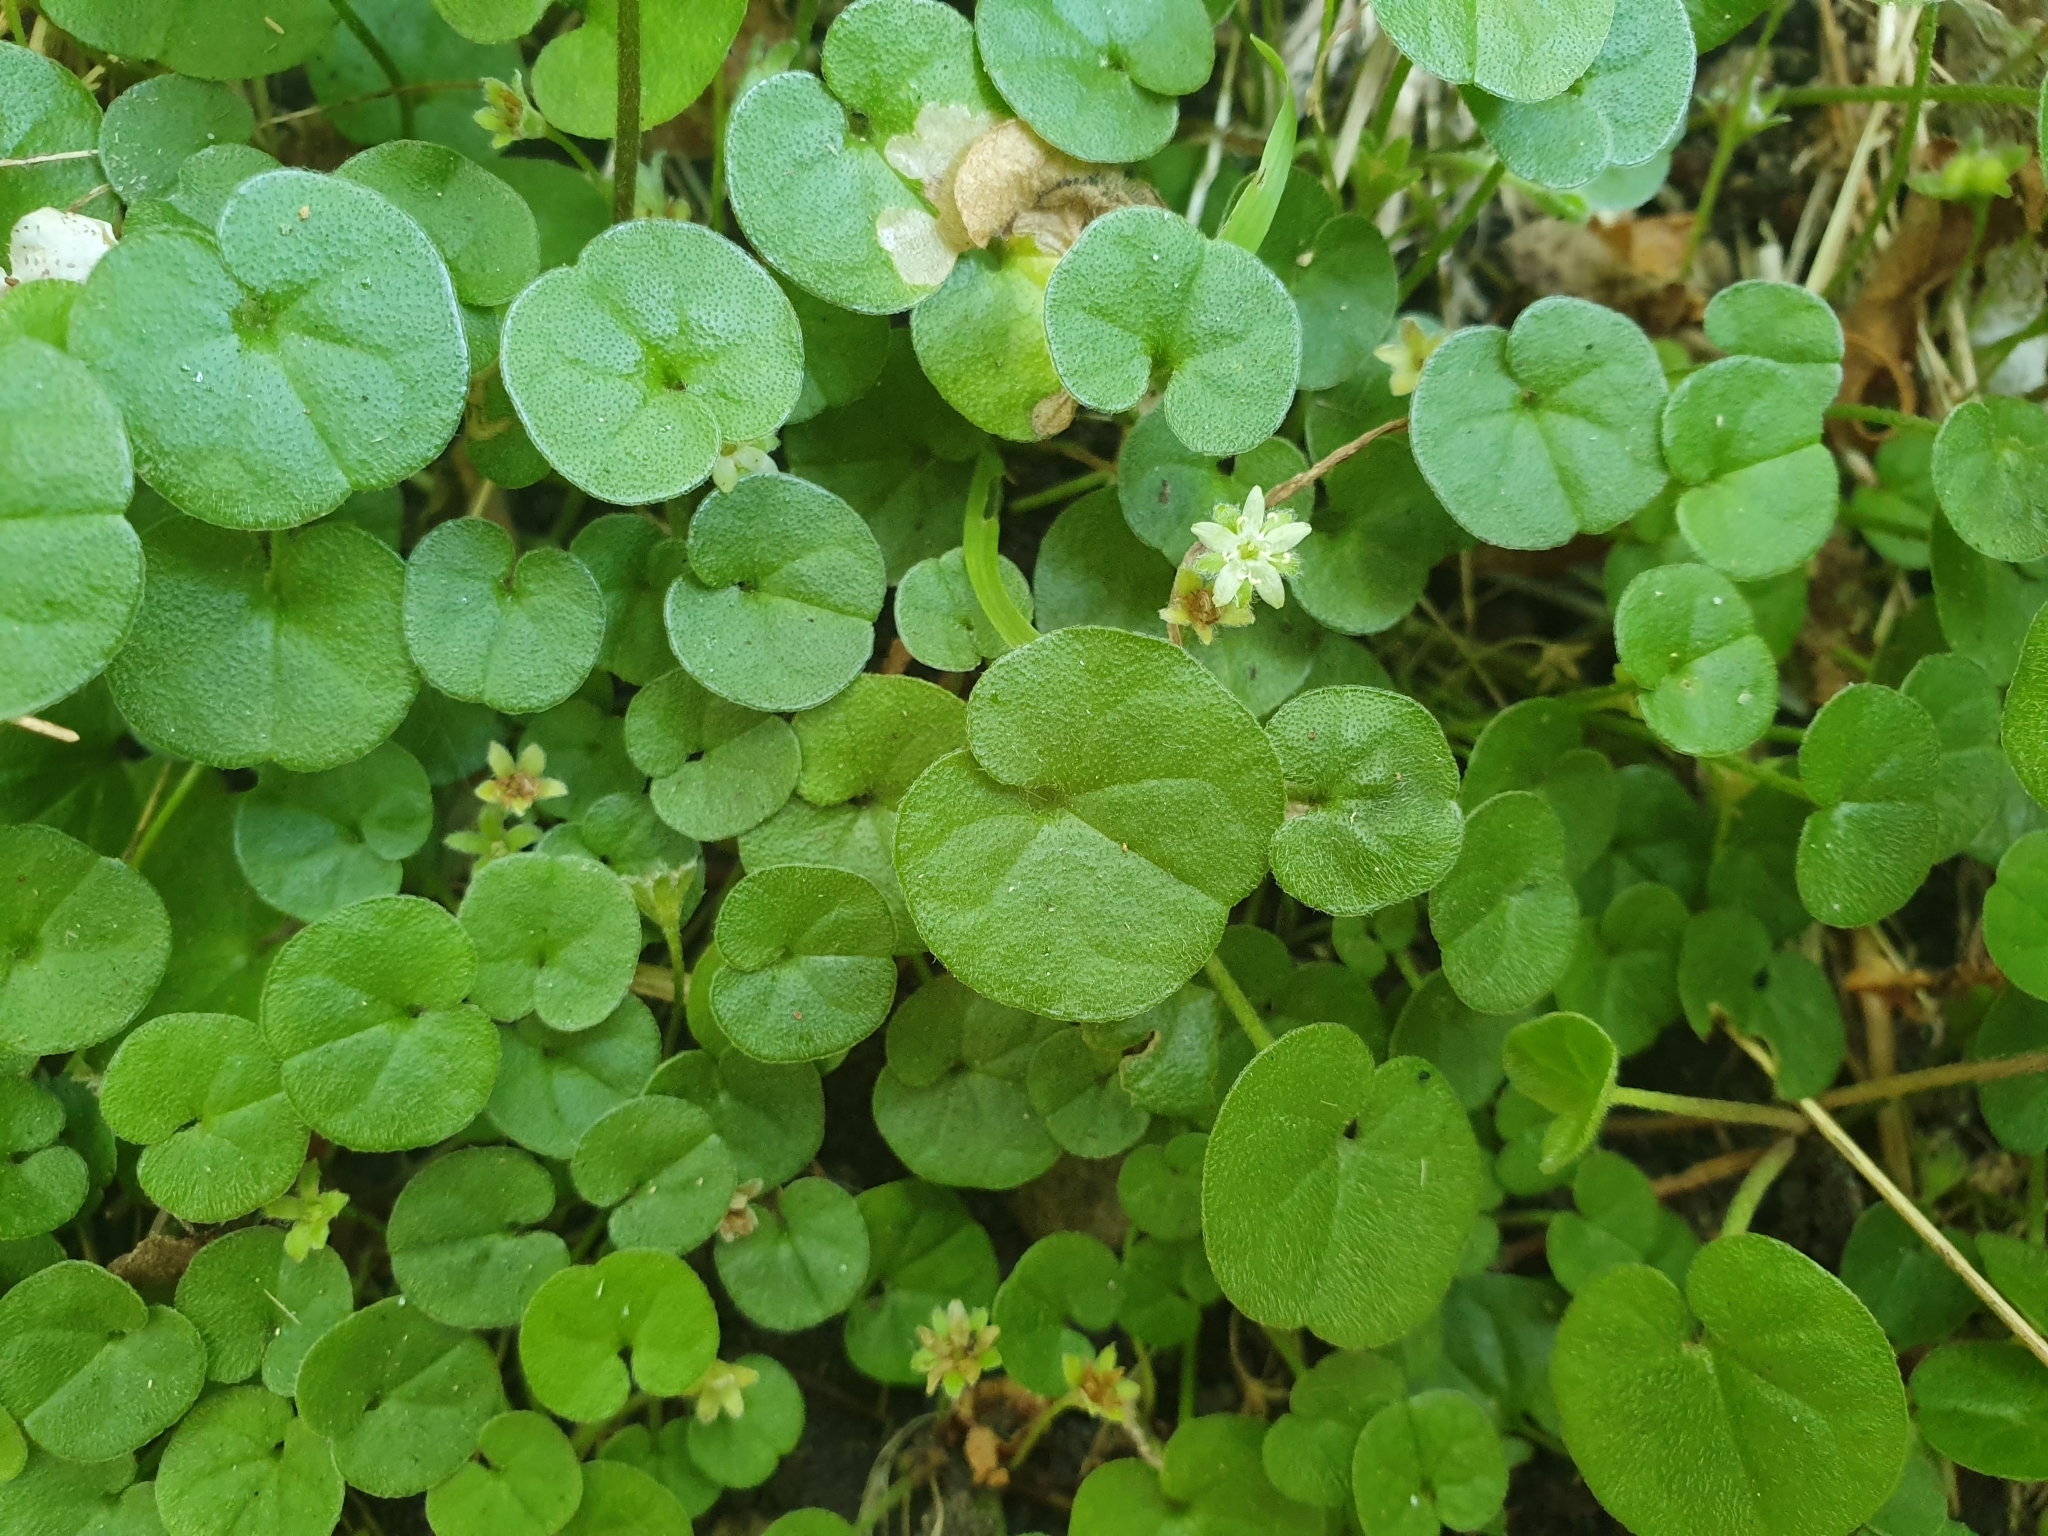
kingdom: Plantae
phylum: Tracheophyta
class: Magnoliopsida
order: Solanales
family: Convolvulaceae
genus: Dichondra
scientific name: Dichondra repens
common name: Kidneyweed
